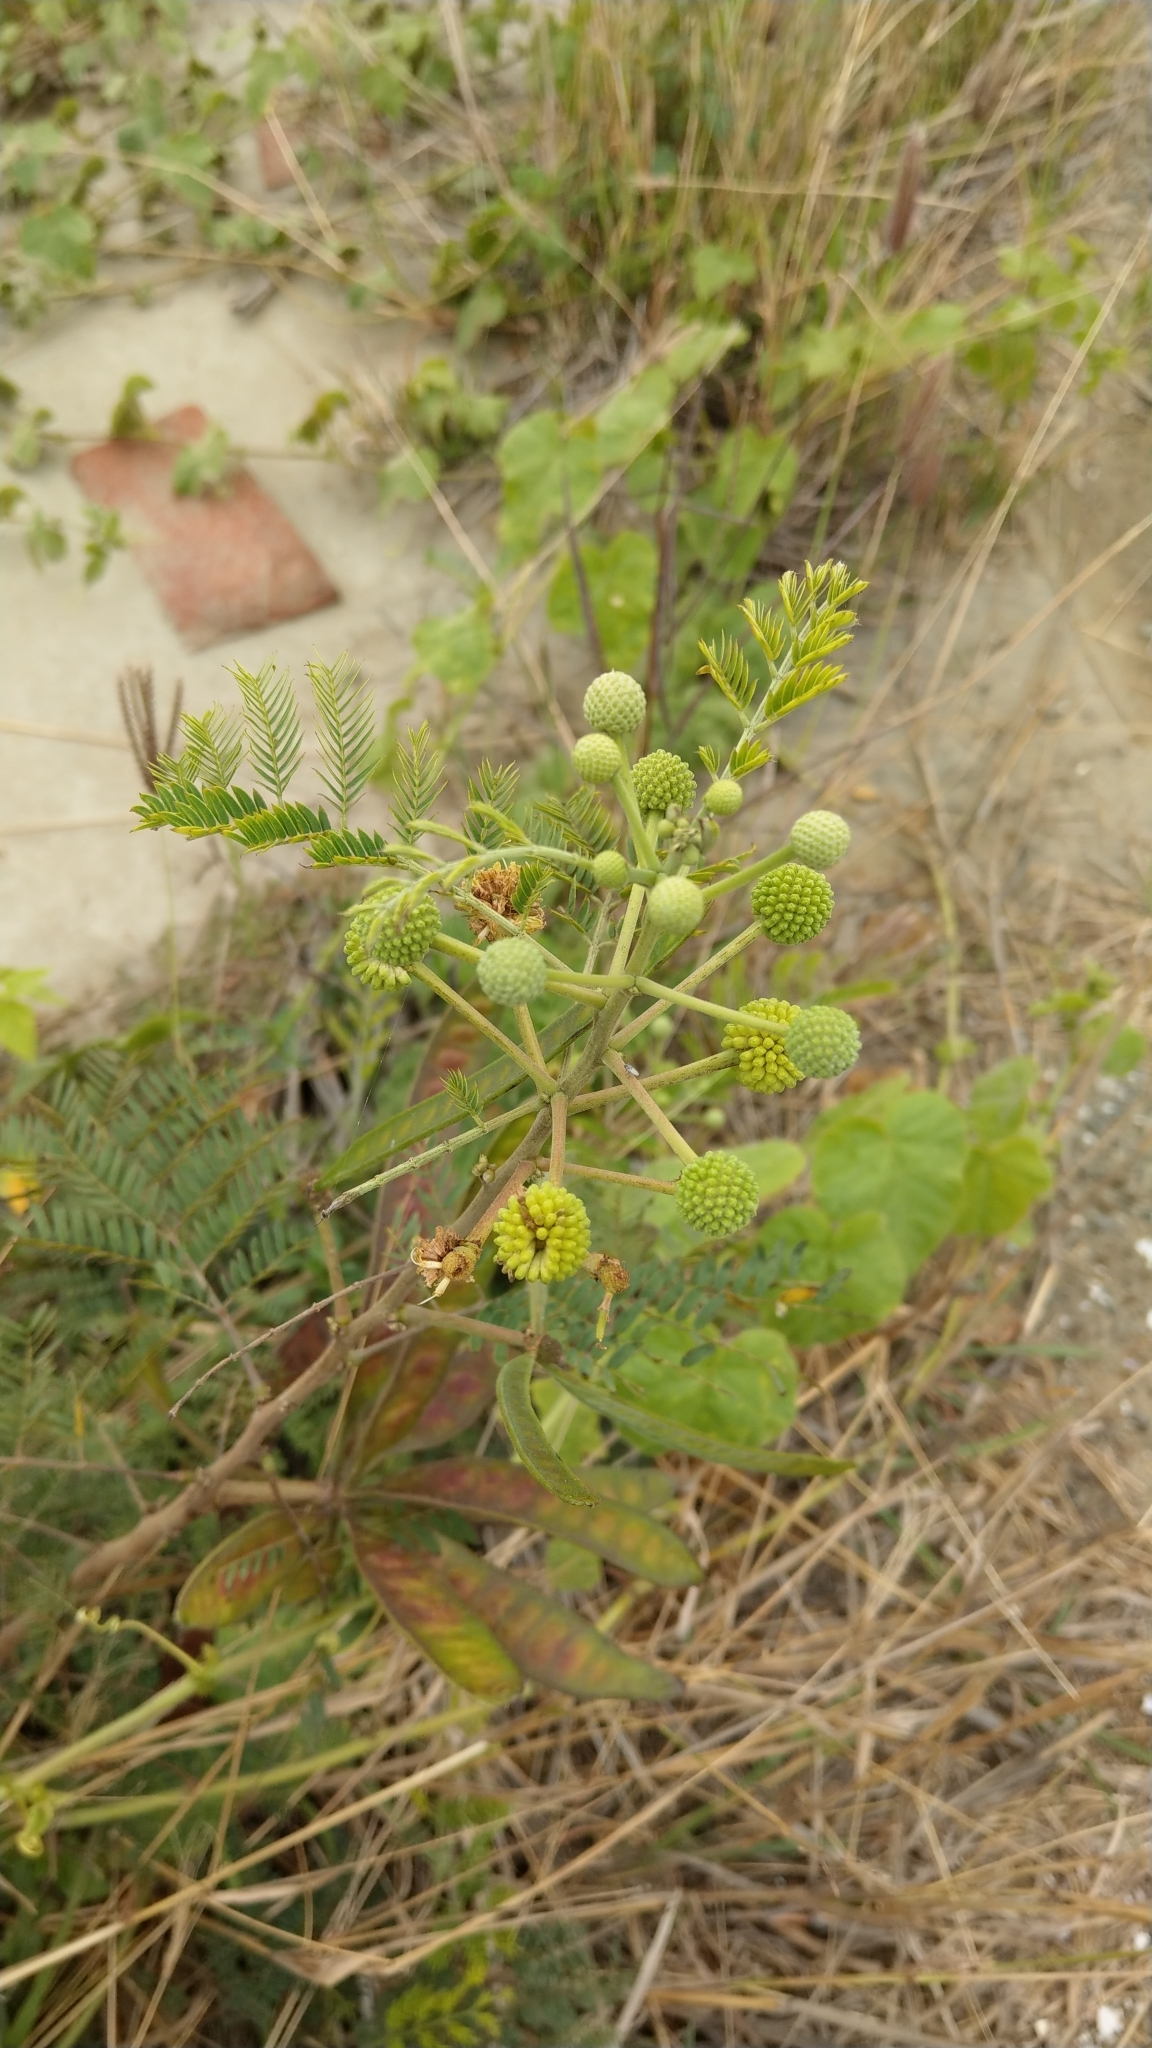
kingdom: Plantae
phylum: Tracheophyta
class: Magnoliopsida
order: Fabales
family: Fabaceae
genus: Leucaena
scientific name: Leucaena leucocephala
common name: White leadtree
